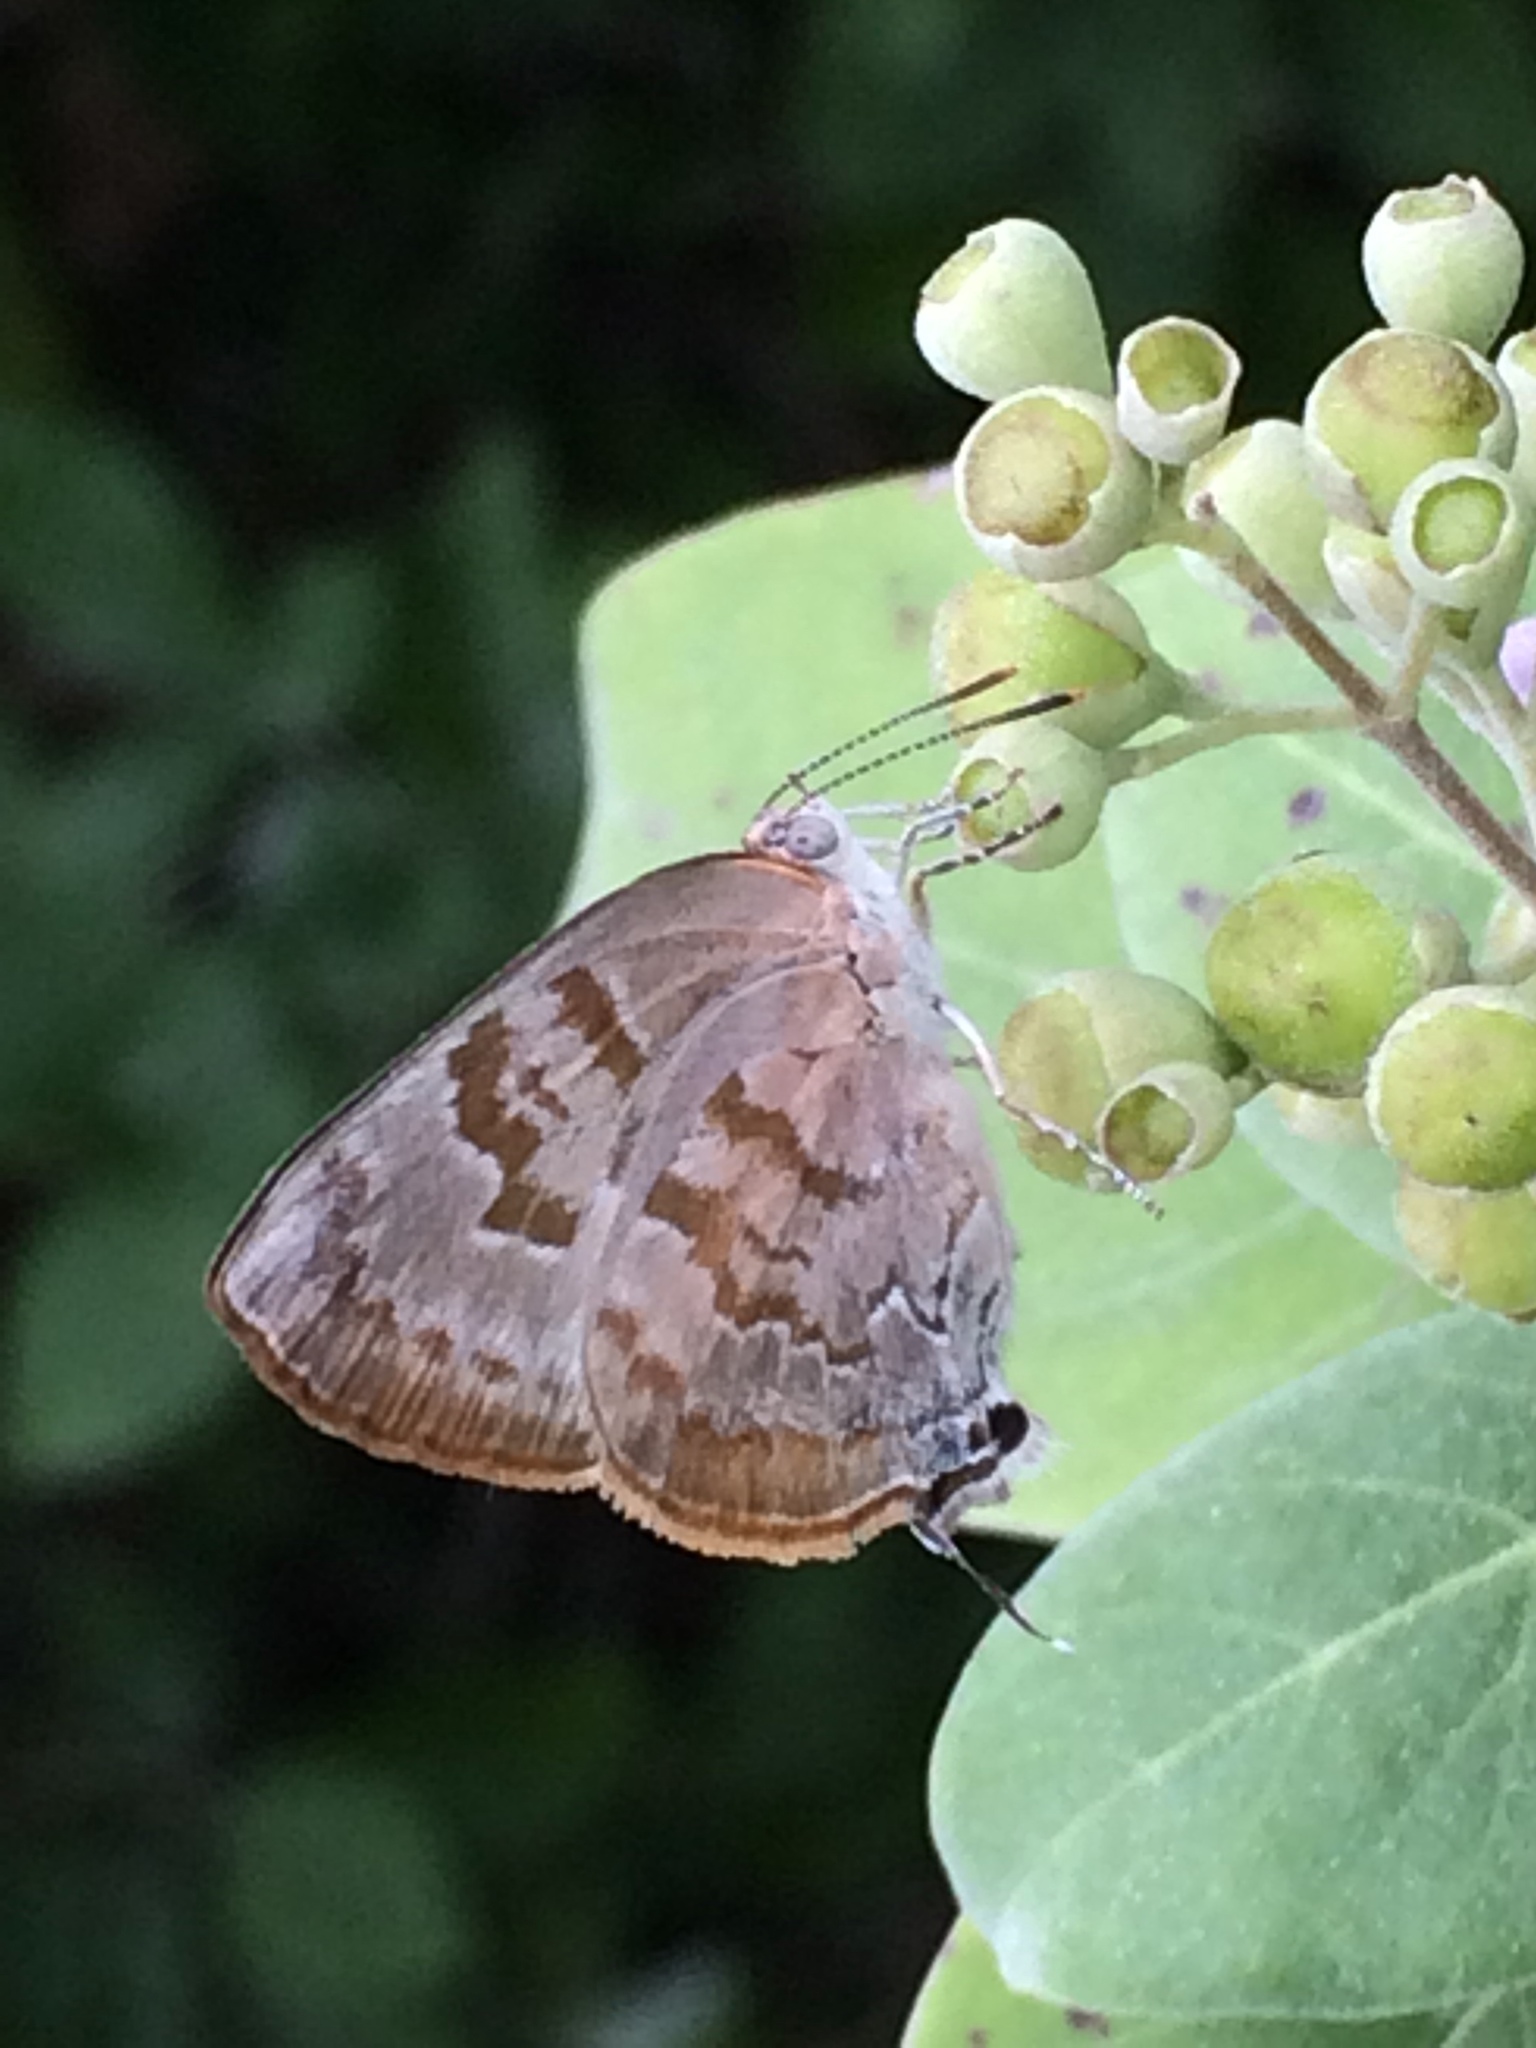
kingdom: Animalia
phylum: Arthropoda
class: Insecta
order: Lepidoptera
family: Lycaenidae
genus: Rekoa
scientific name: Rekoa palegon
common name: Gold-bordered hairstreak
